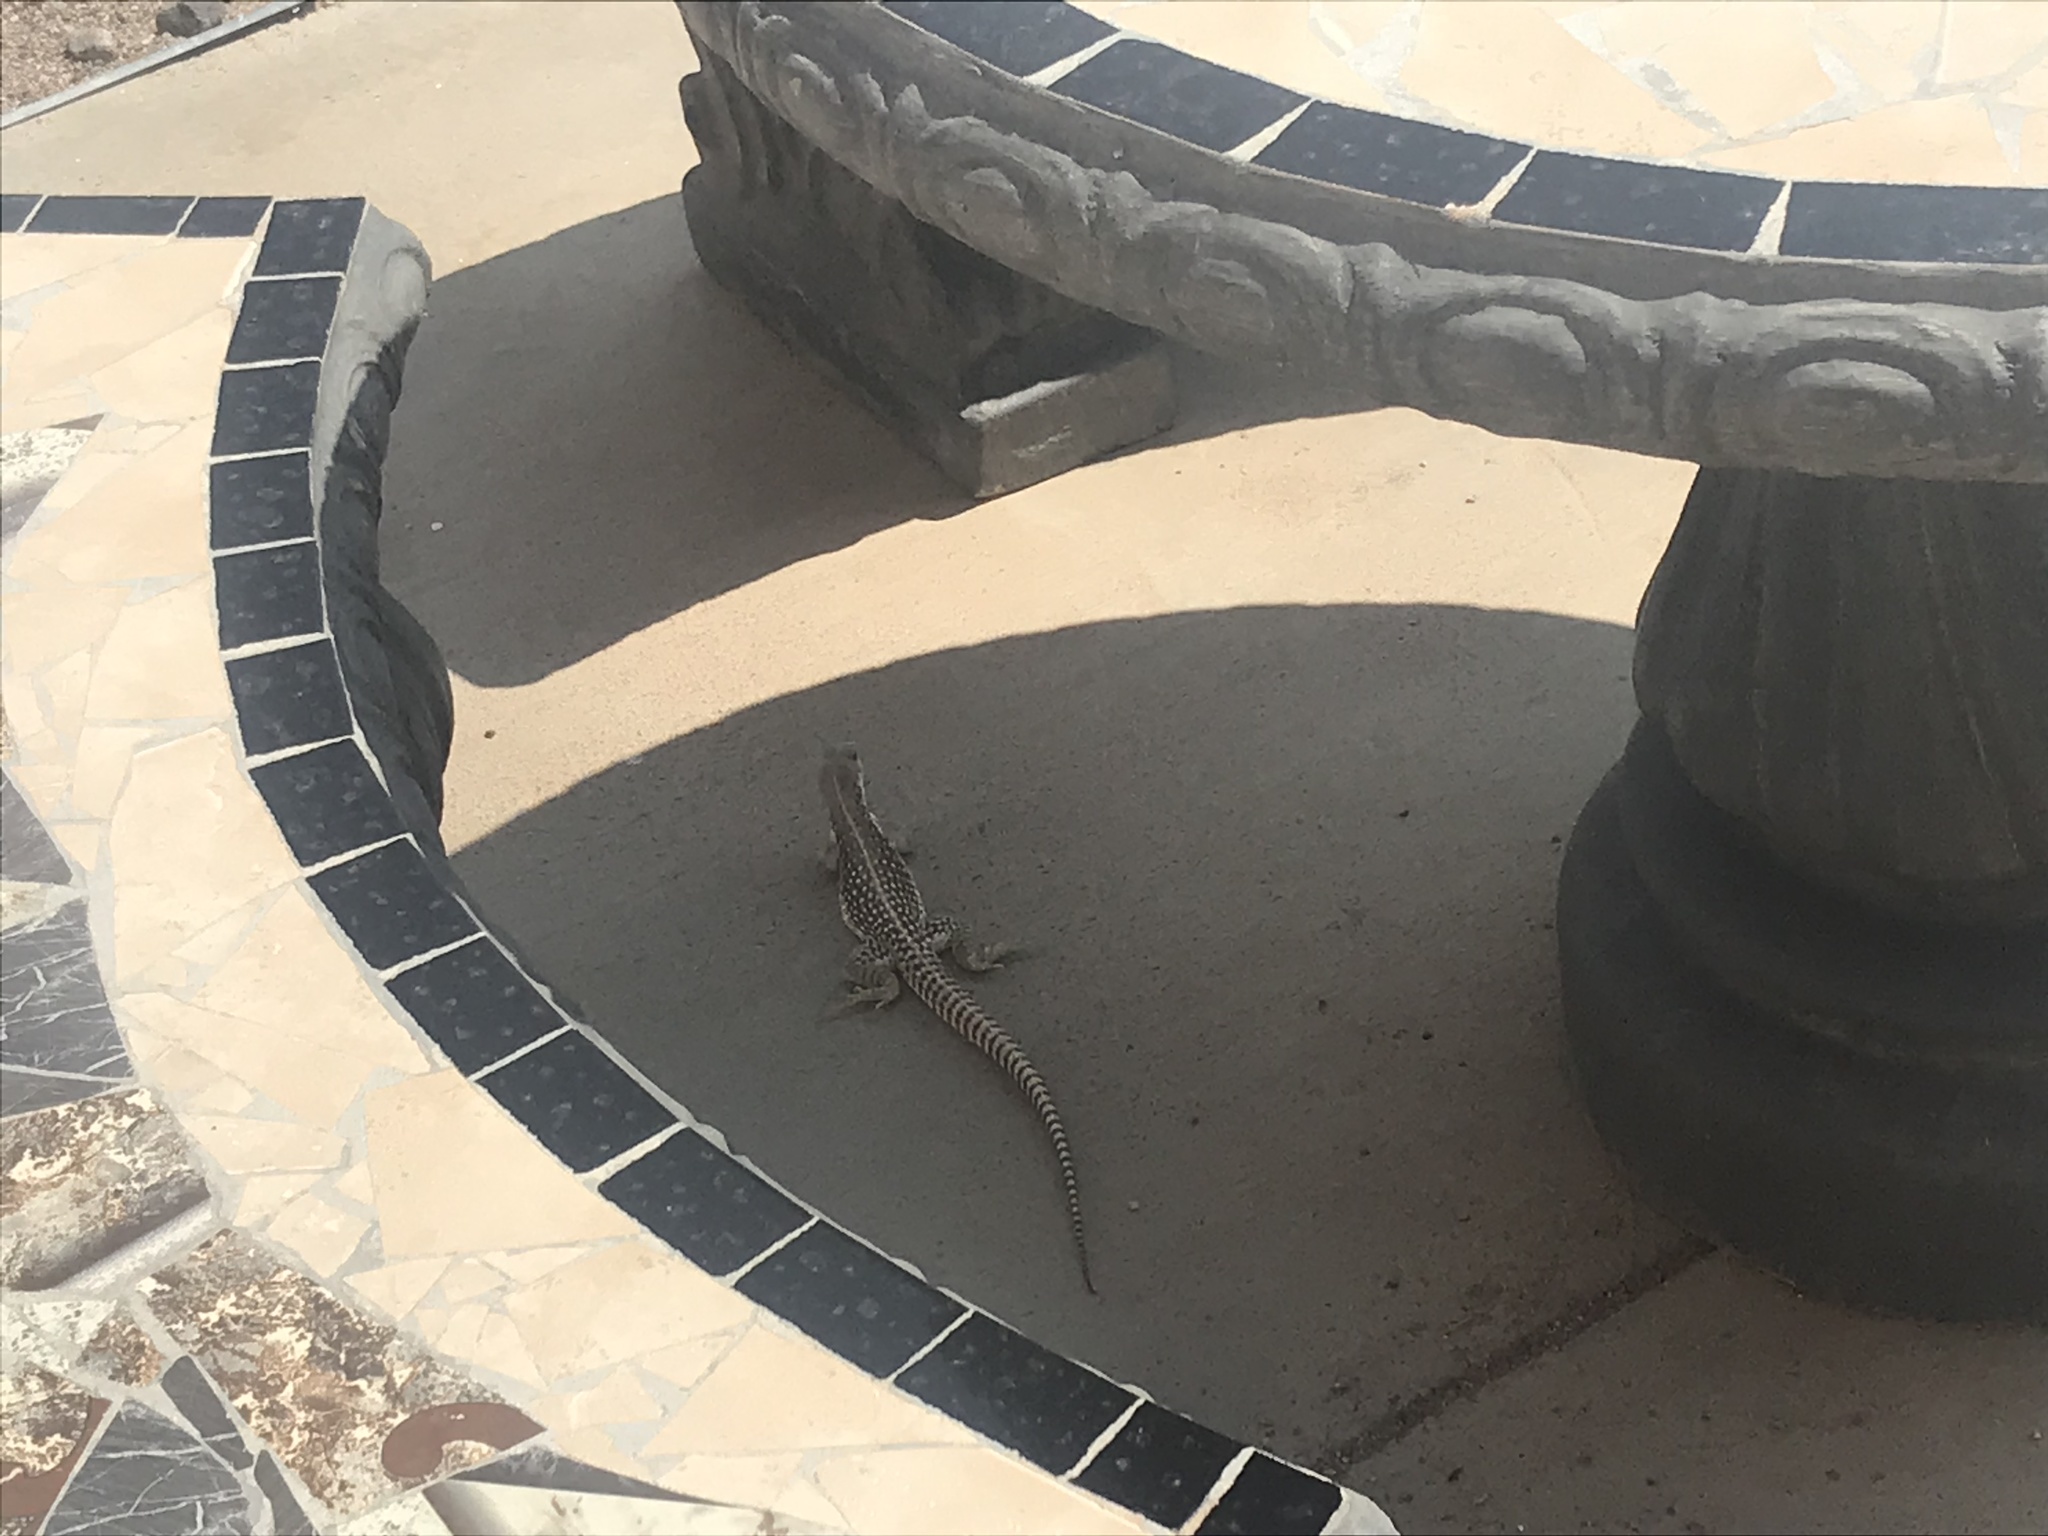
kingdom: Animalia
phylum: Chordata
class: Squamata
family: Iguanidae
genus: Dipsosaurus
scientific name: Dipsosaurus dorsalis
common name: Desert iguana
